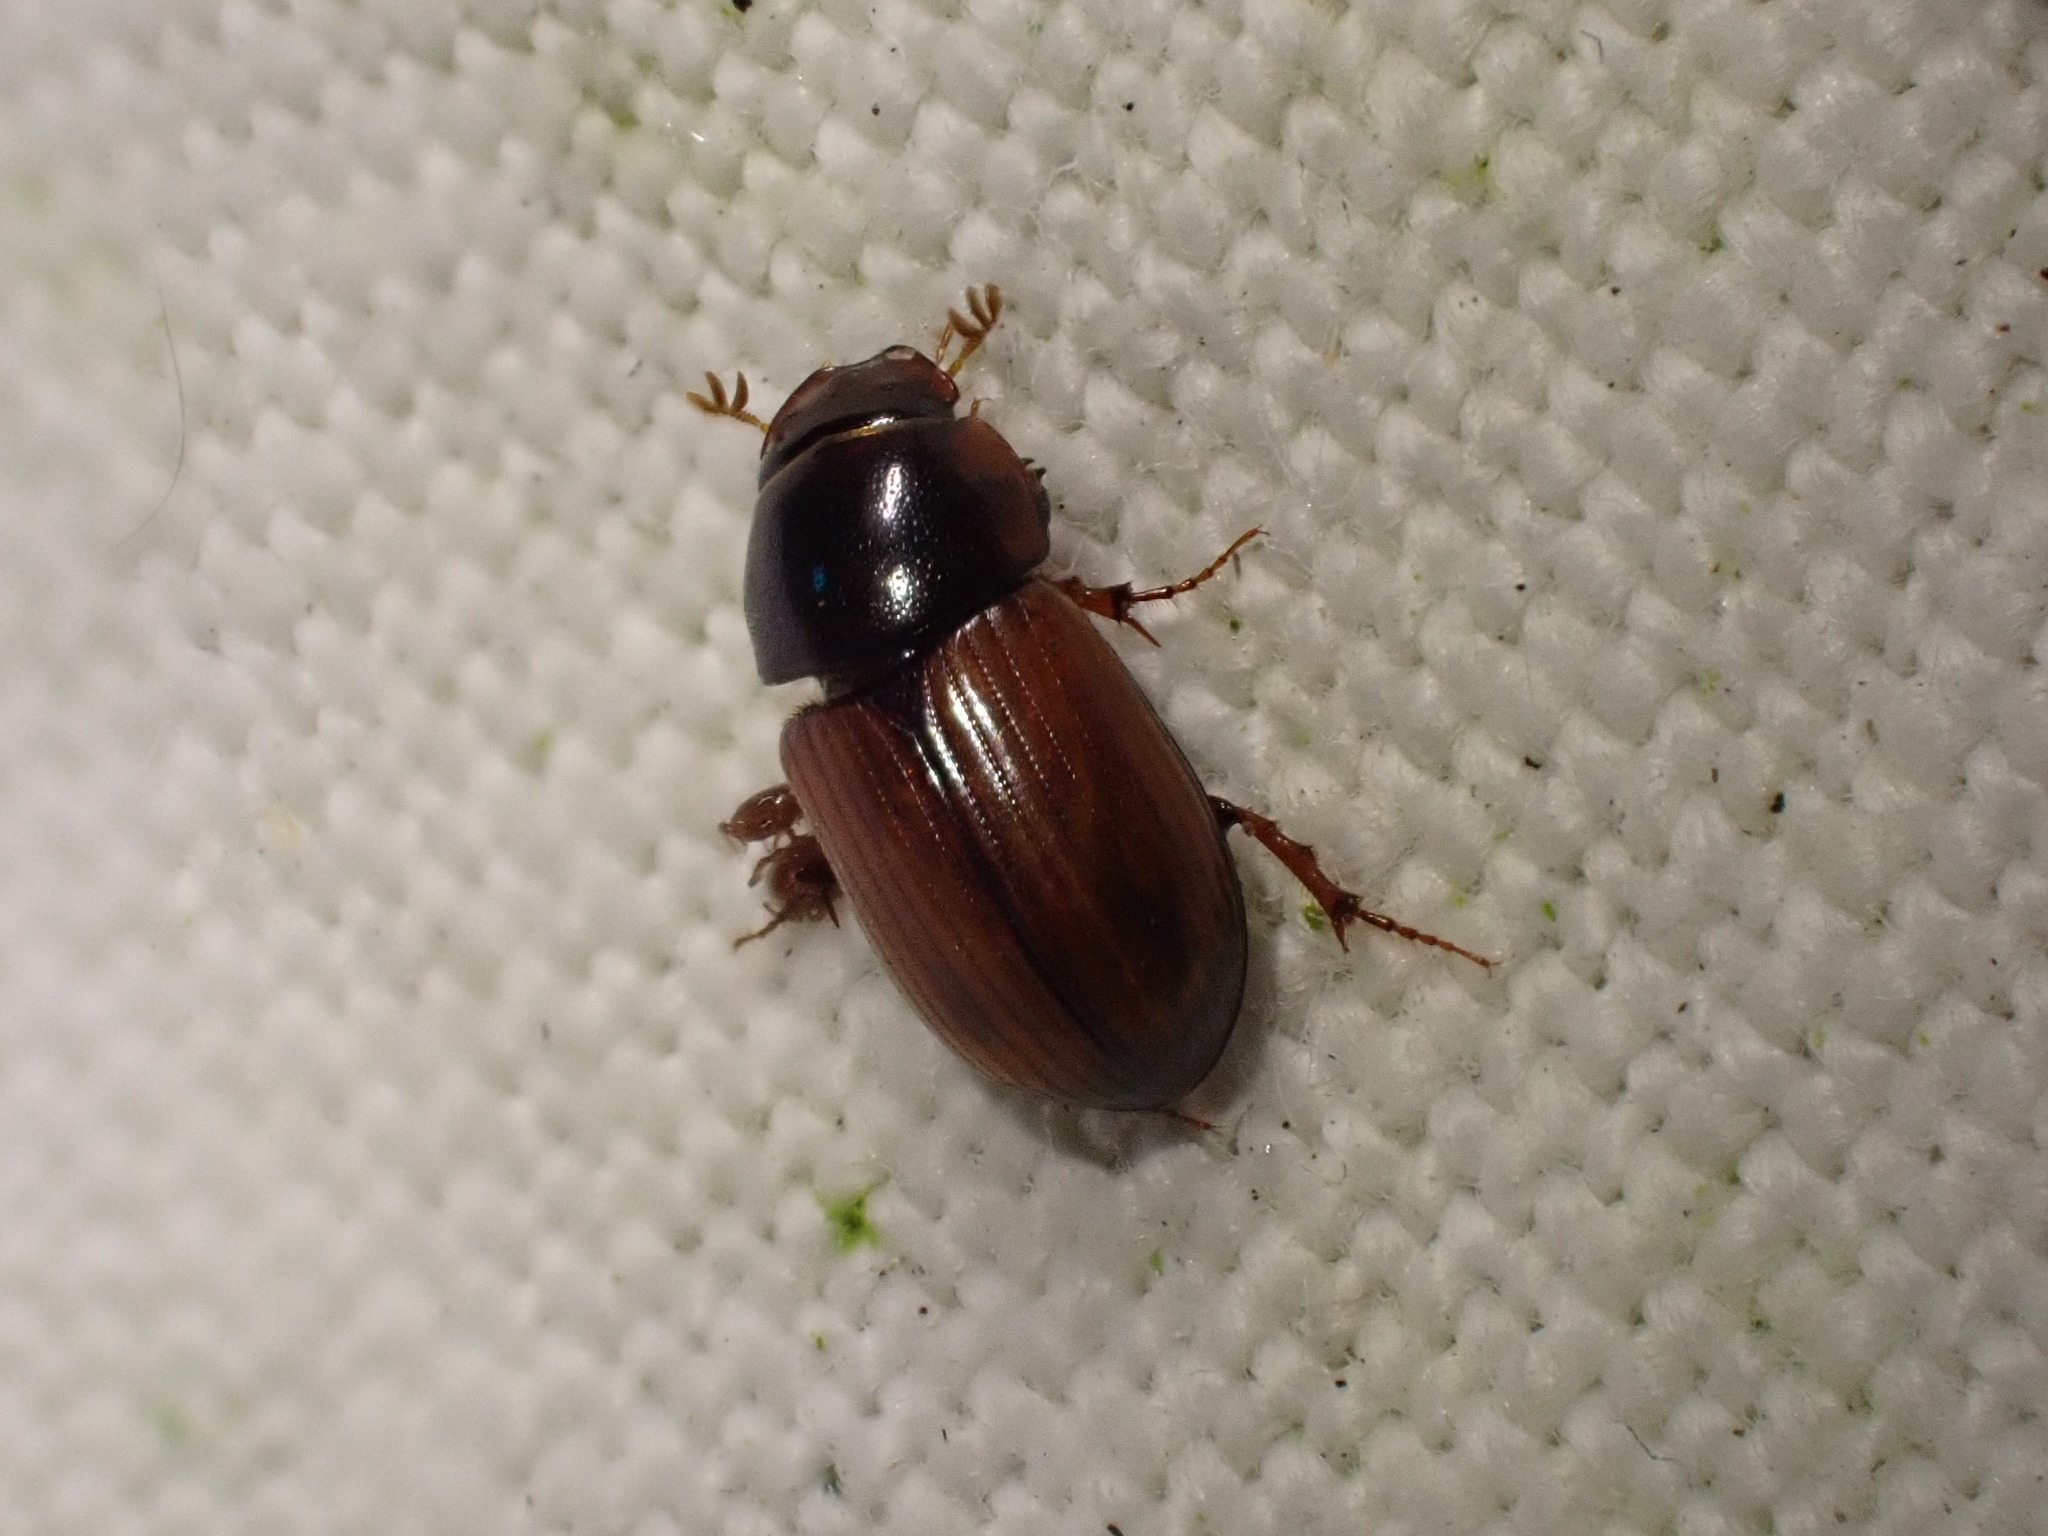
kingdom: Animalia
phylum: Arthropoda
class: Insecta
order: Coleoptera
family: Scarabaeidae
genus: Bodilopsis
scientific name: Bodilopsis rufus
